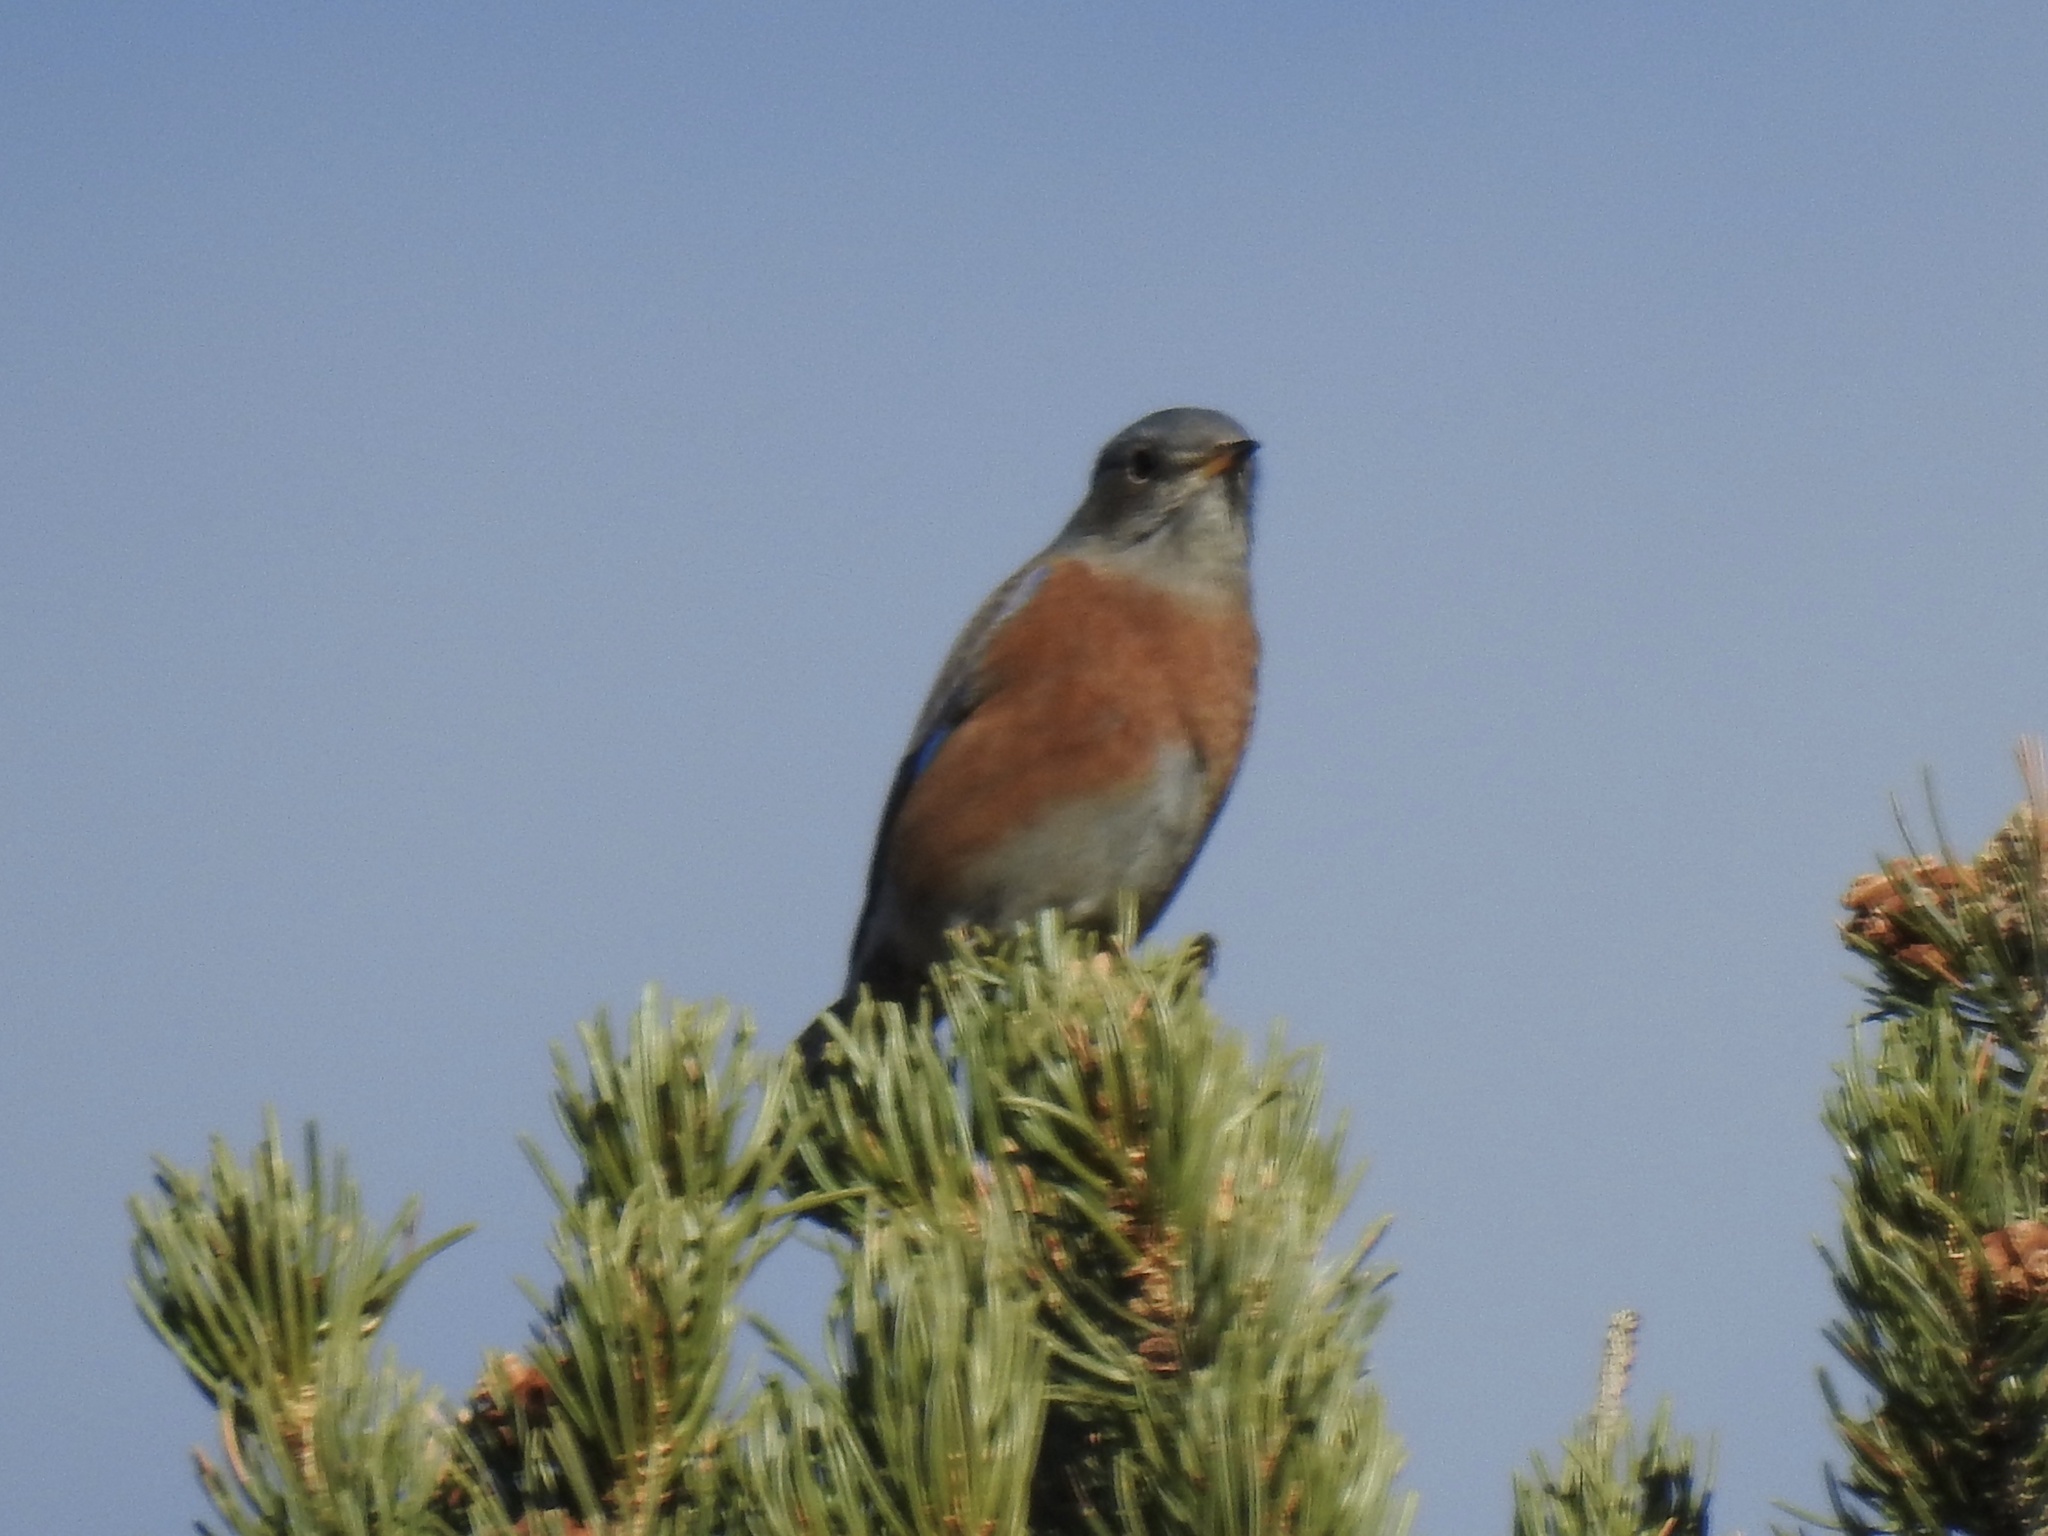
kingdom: Animalia
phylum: Chordata
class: Aves
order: Passeriformes
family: Turdidae
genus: Sialia
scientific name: Sialia mexicana
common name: Western bluebird
